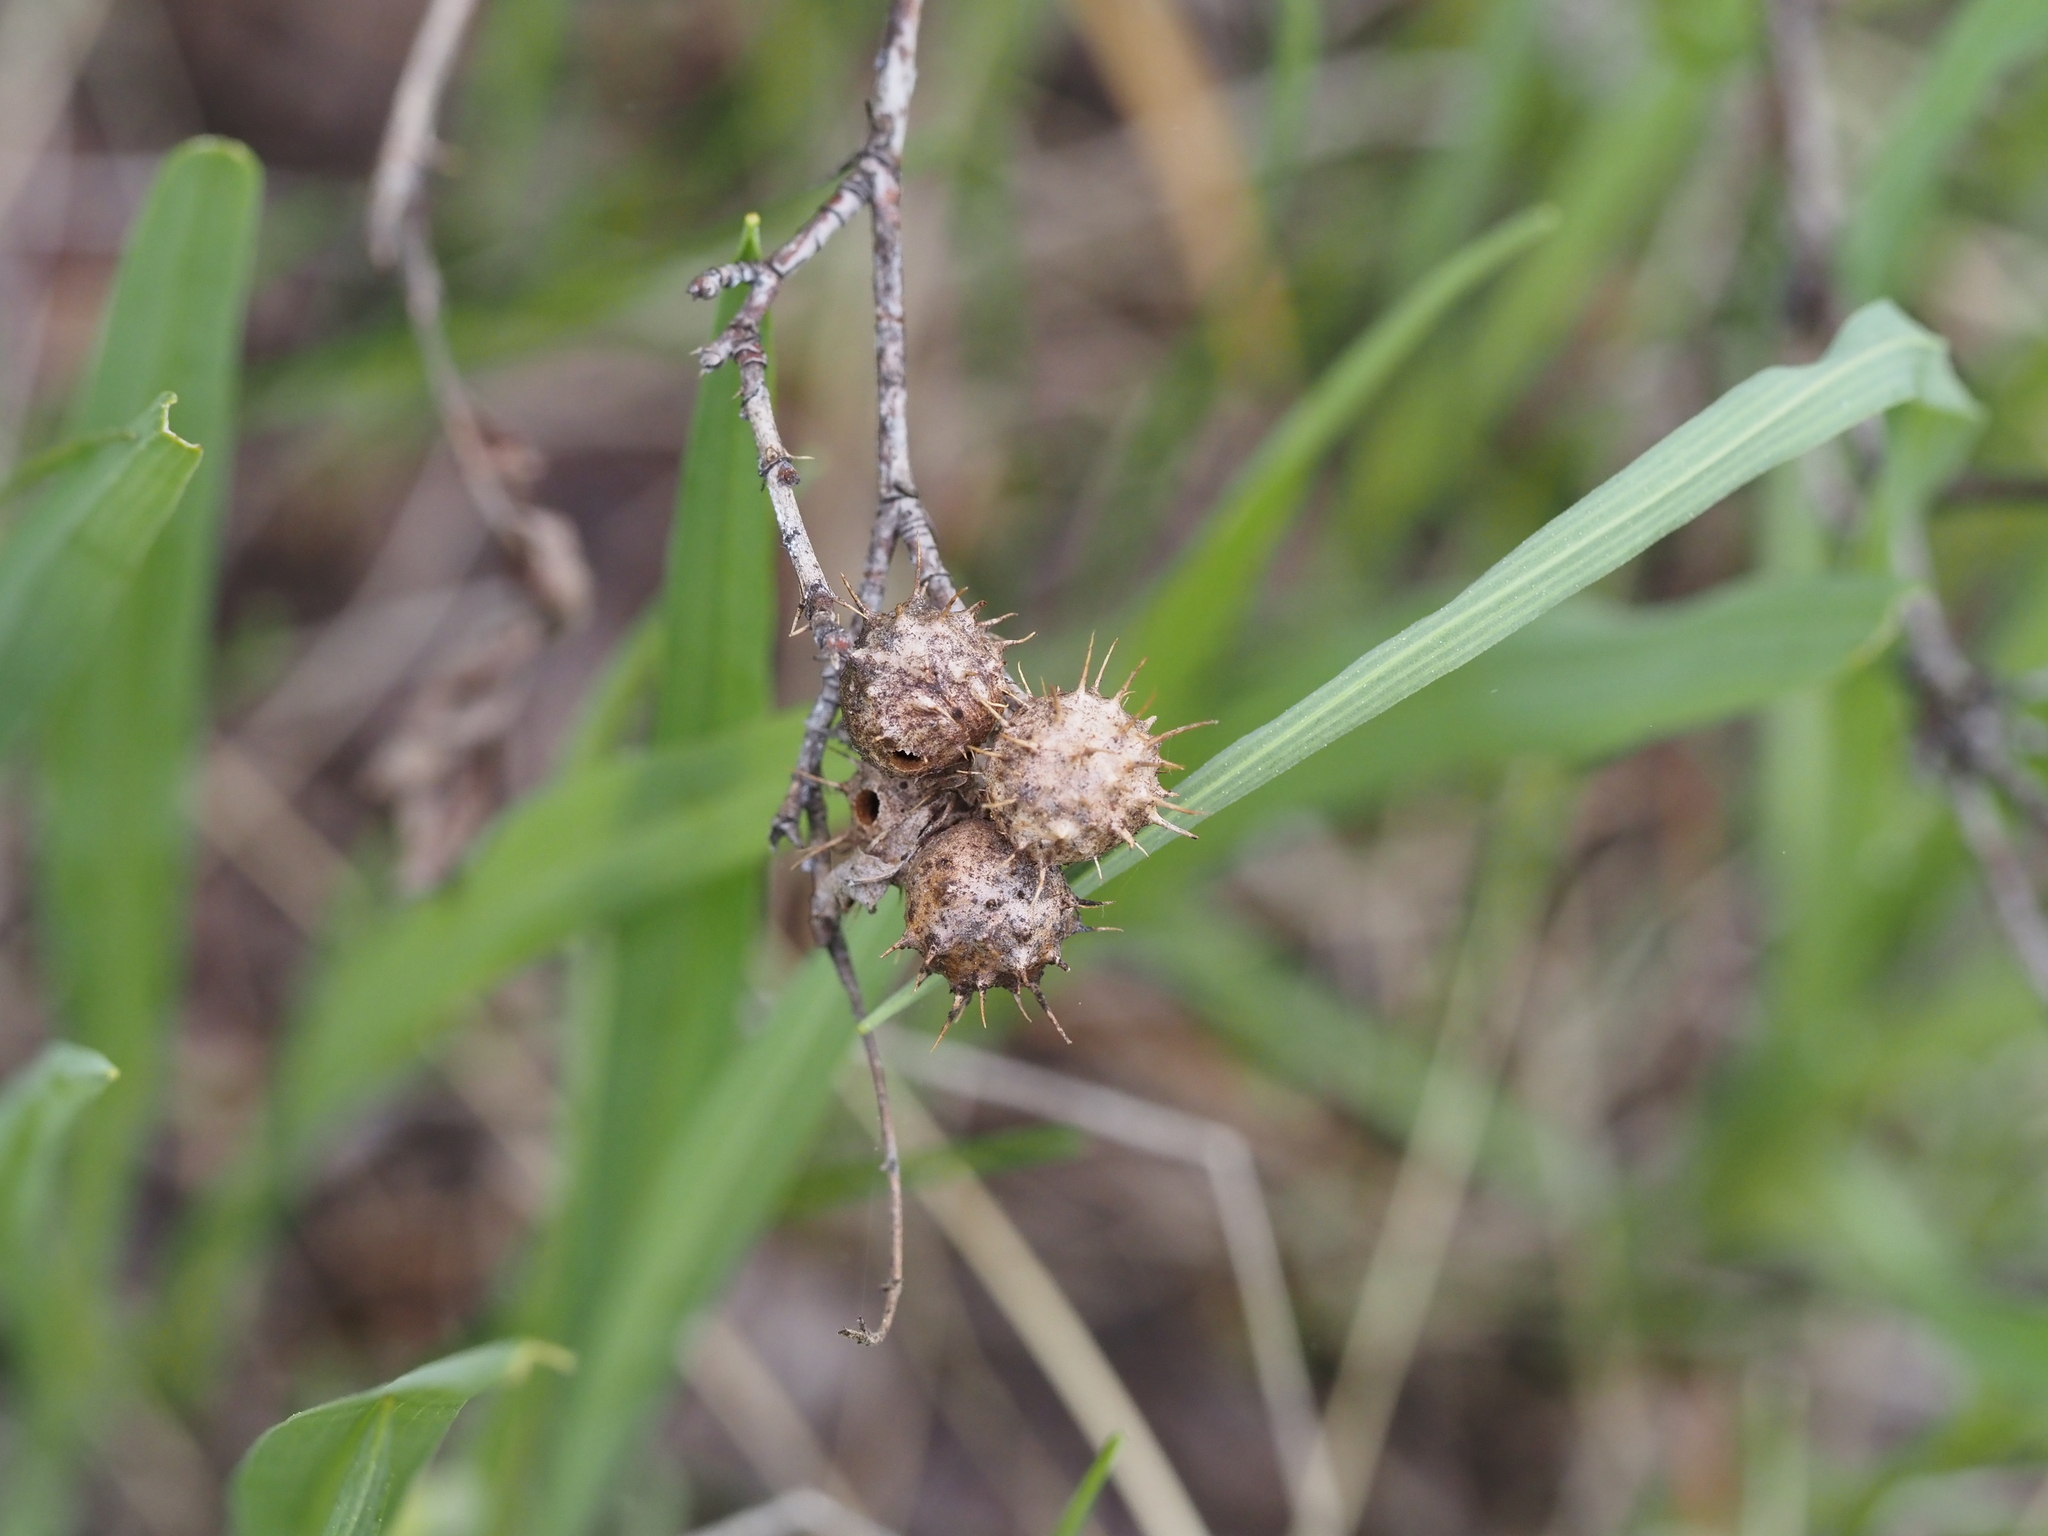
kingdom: Animalia
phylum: Arthropoda
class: Insecta
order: Hymenoptera
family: Cynipidae
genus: Diplolepis
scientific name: Diplolepis polita
